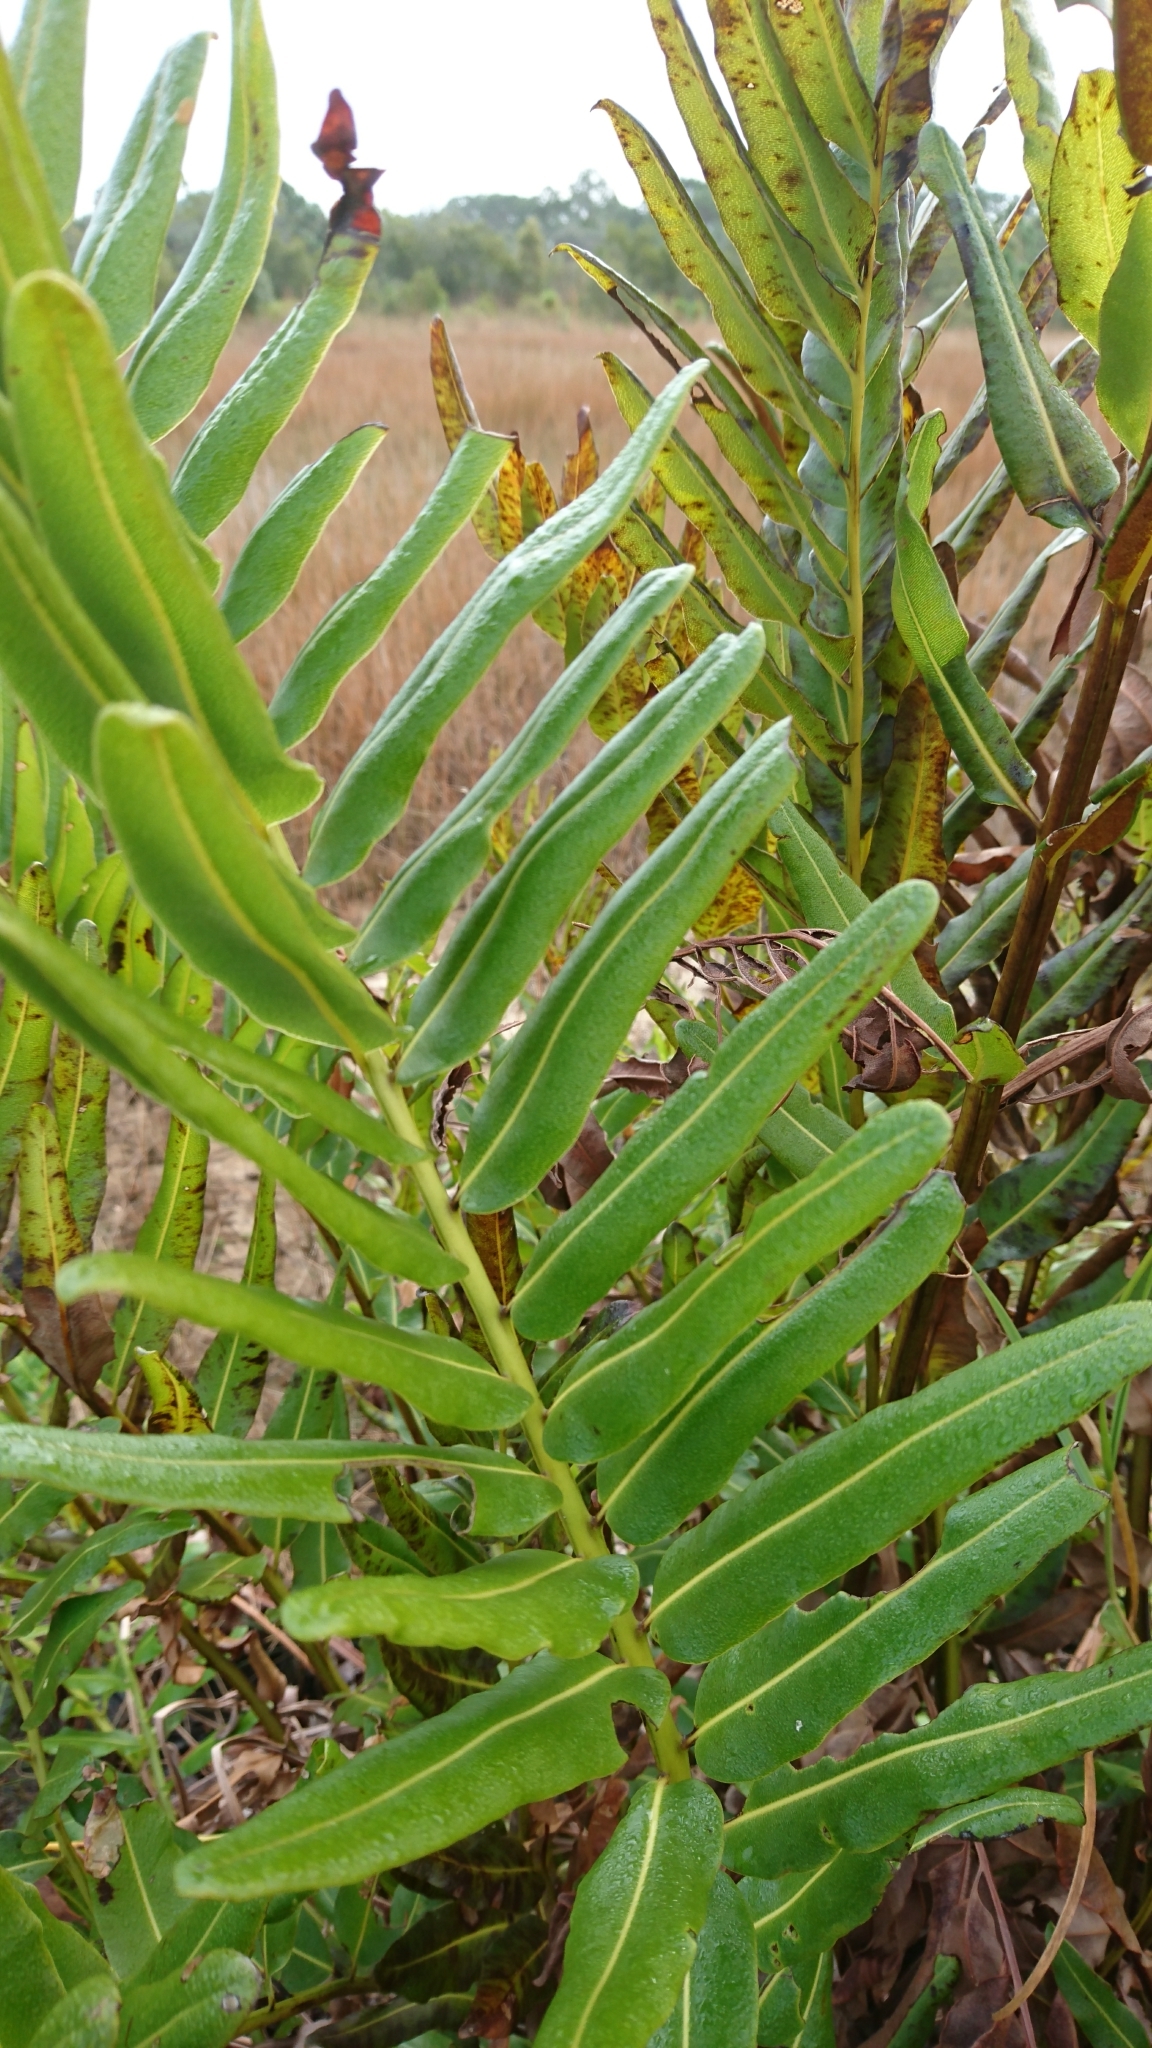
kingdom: Plantae
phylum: Tracheophyta
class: Polypodiopsida
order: Polypodiales
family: Pteridaceae
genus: Acrostichum
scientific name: Acrostichum danaeifolium
